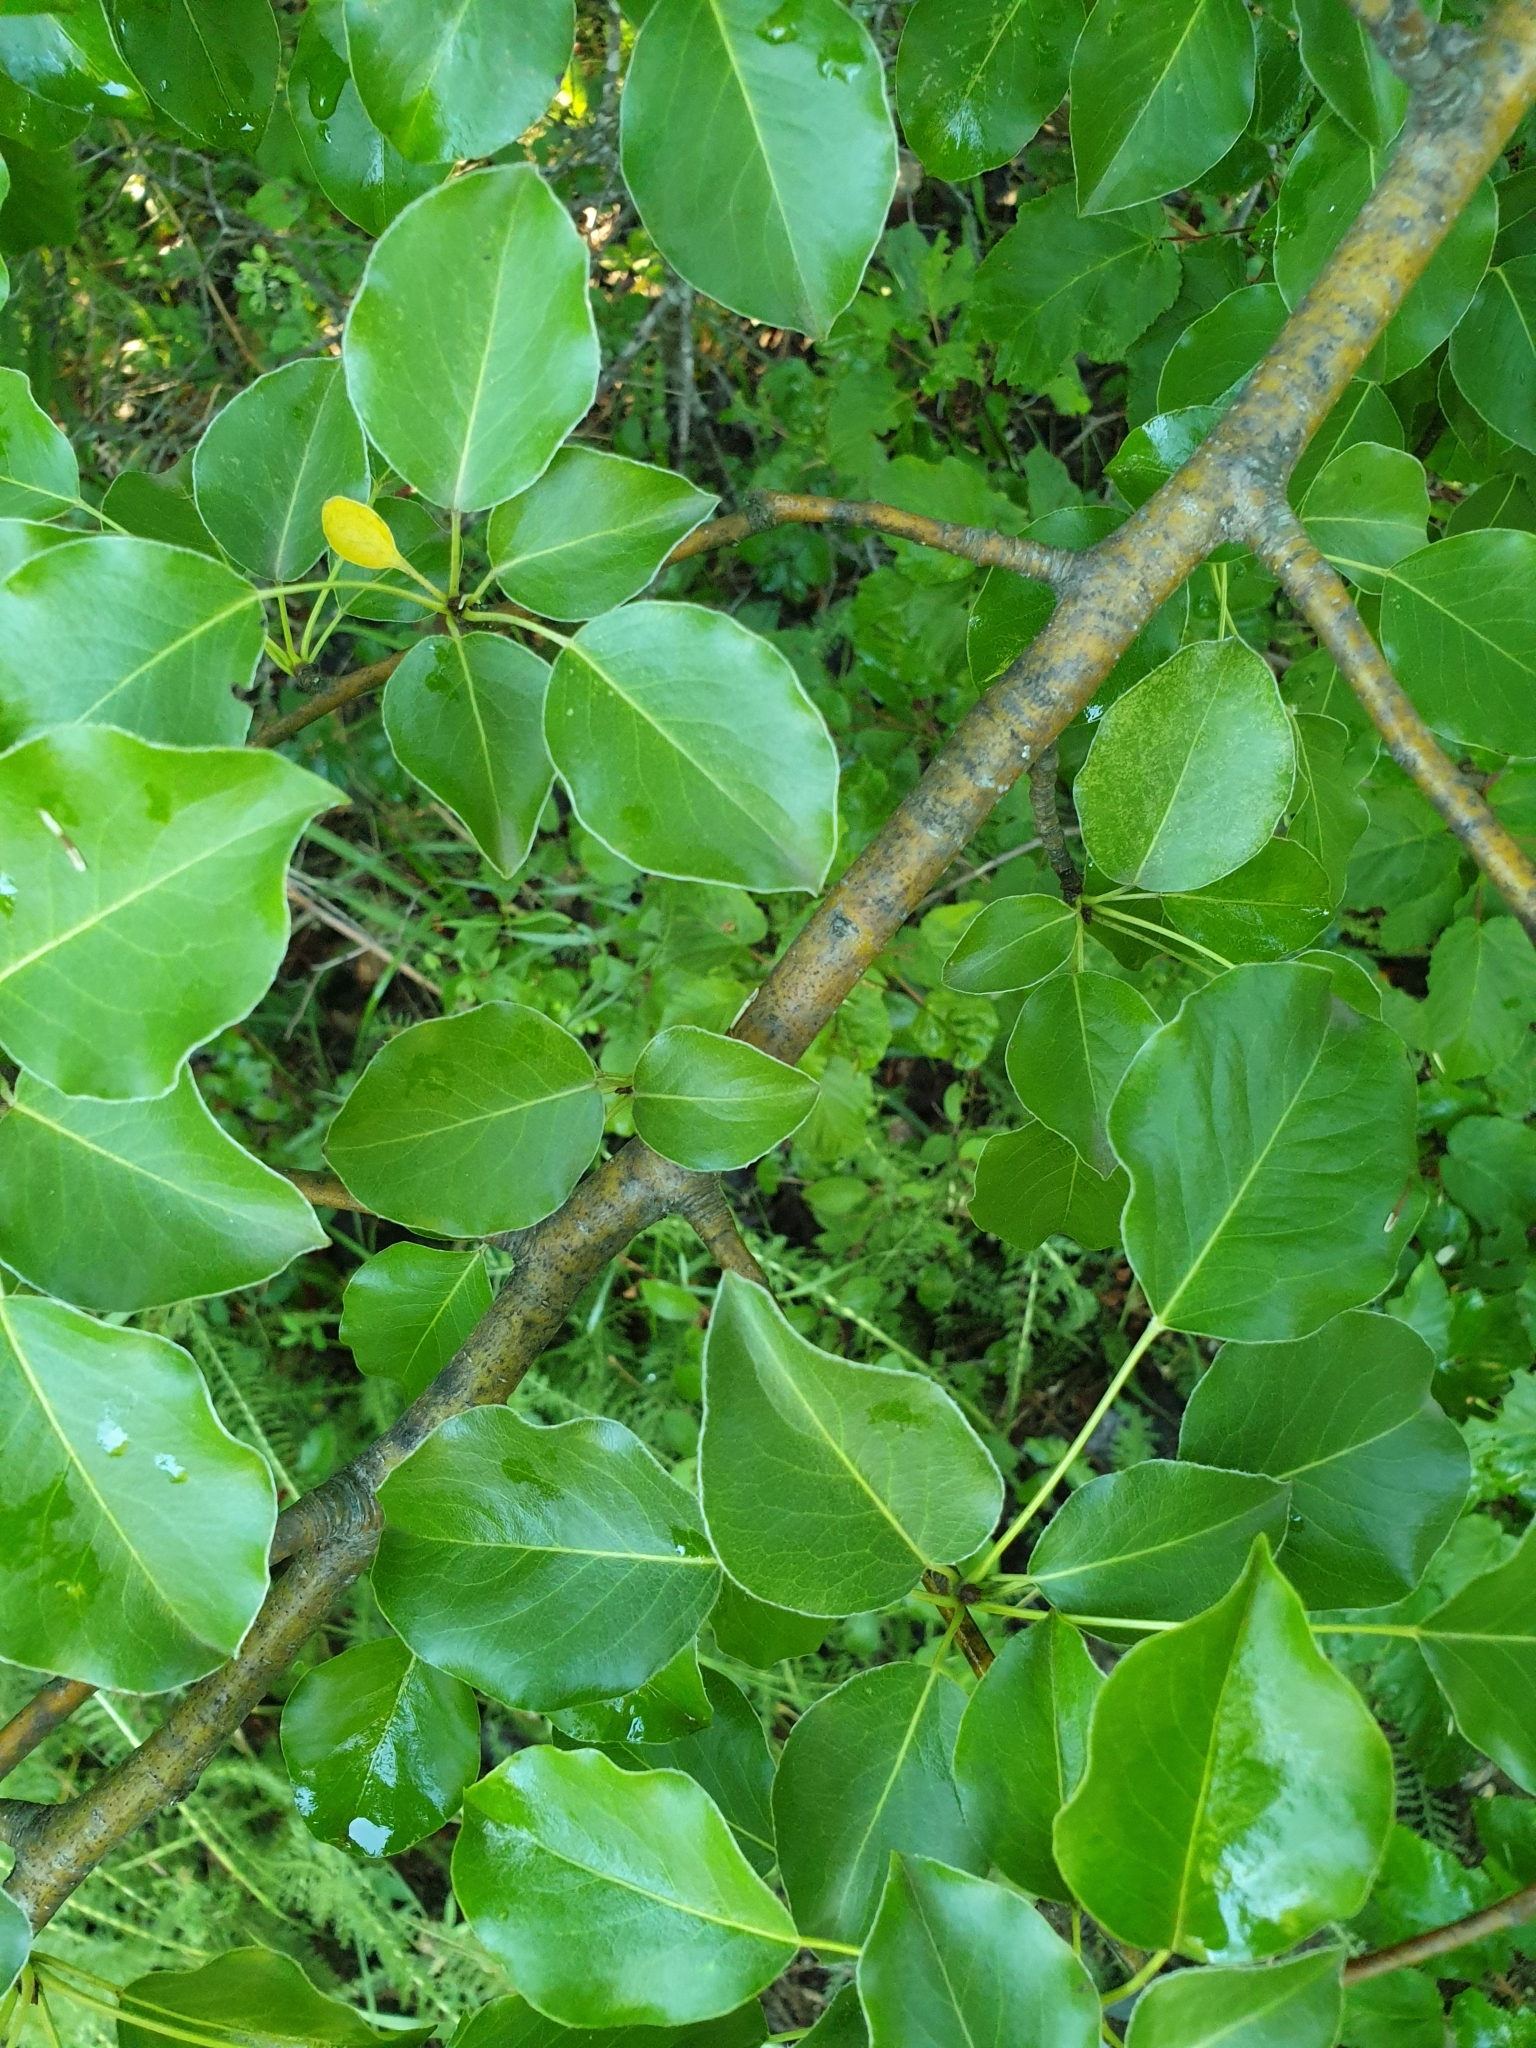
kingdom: Plantae
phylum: Tracheophyta
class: Magnoliopsida
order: Rosales
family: Rosaceae
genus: Pyrus
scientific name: Pyrus communis
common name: Pear
